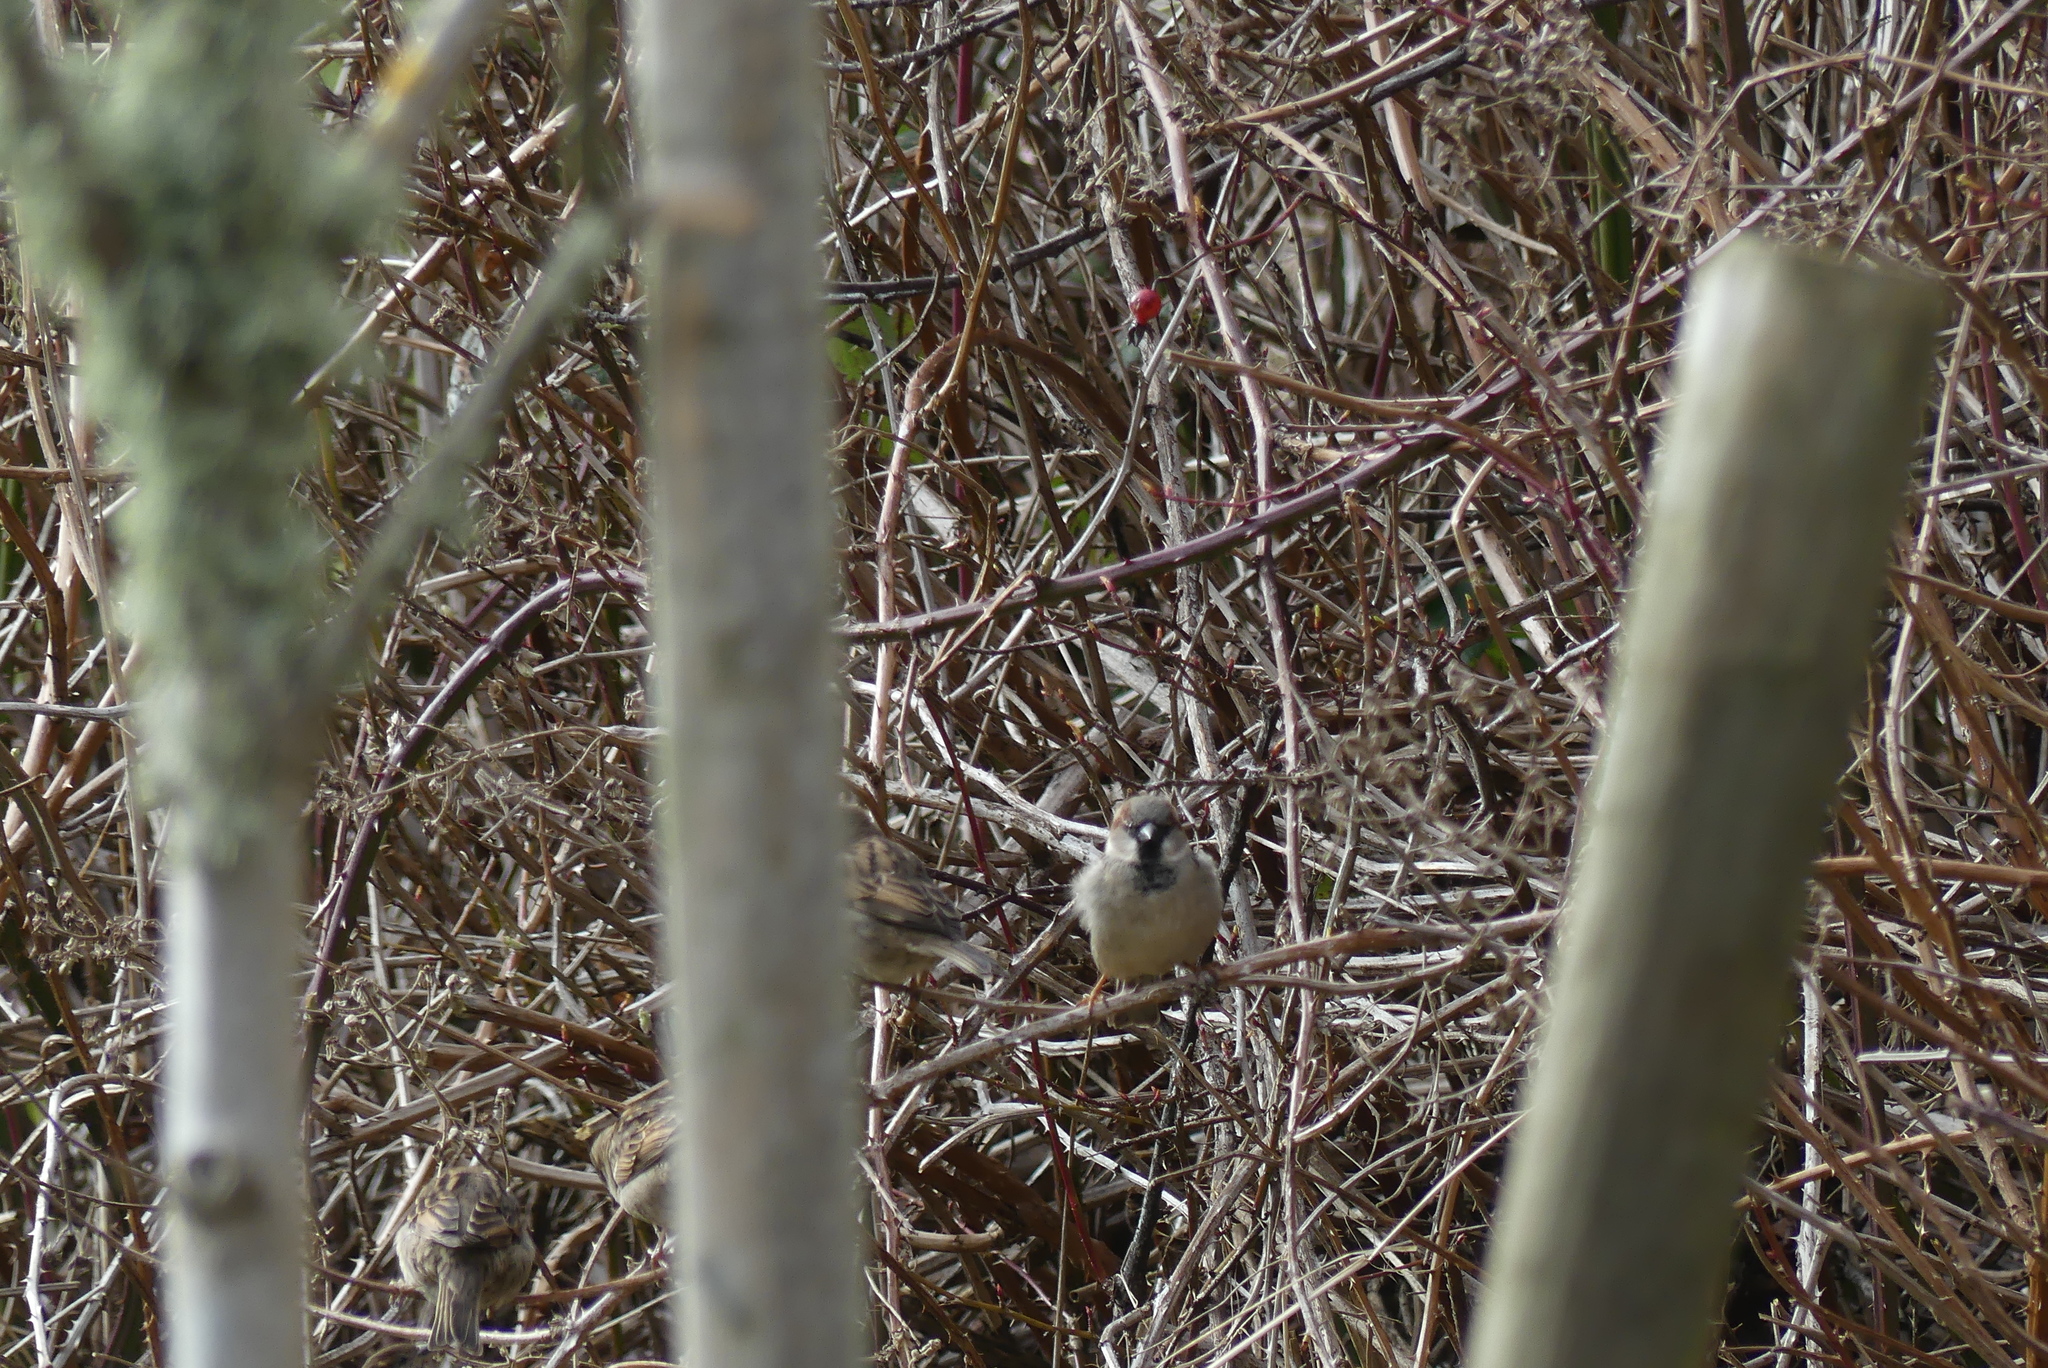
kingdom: Animalia
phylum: Chordata
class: Aves
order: Passeriformes
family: Passeridae
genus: Passer
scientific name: Passer domesticus
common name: House sparrow
